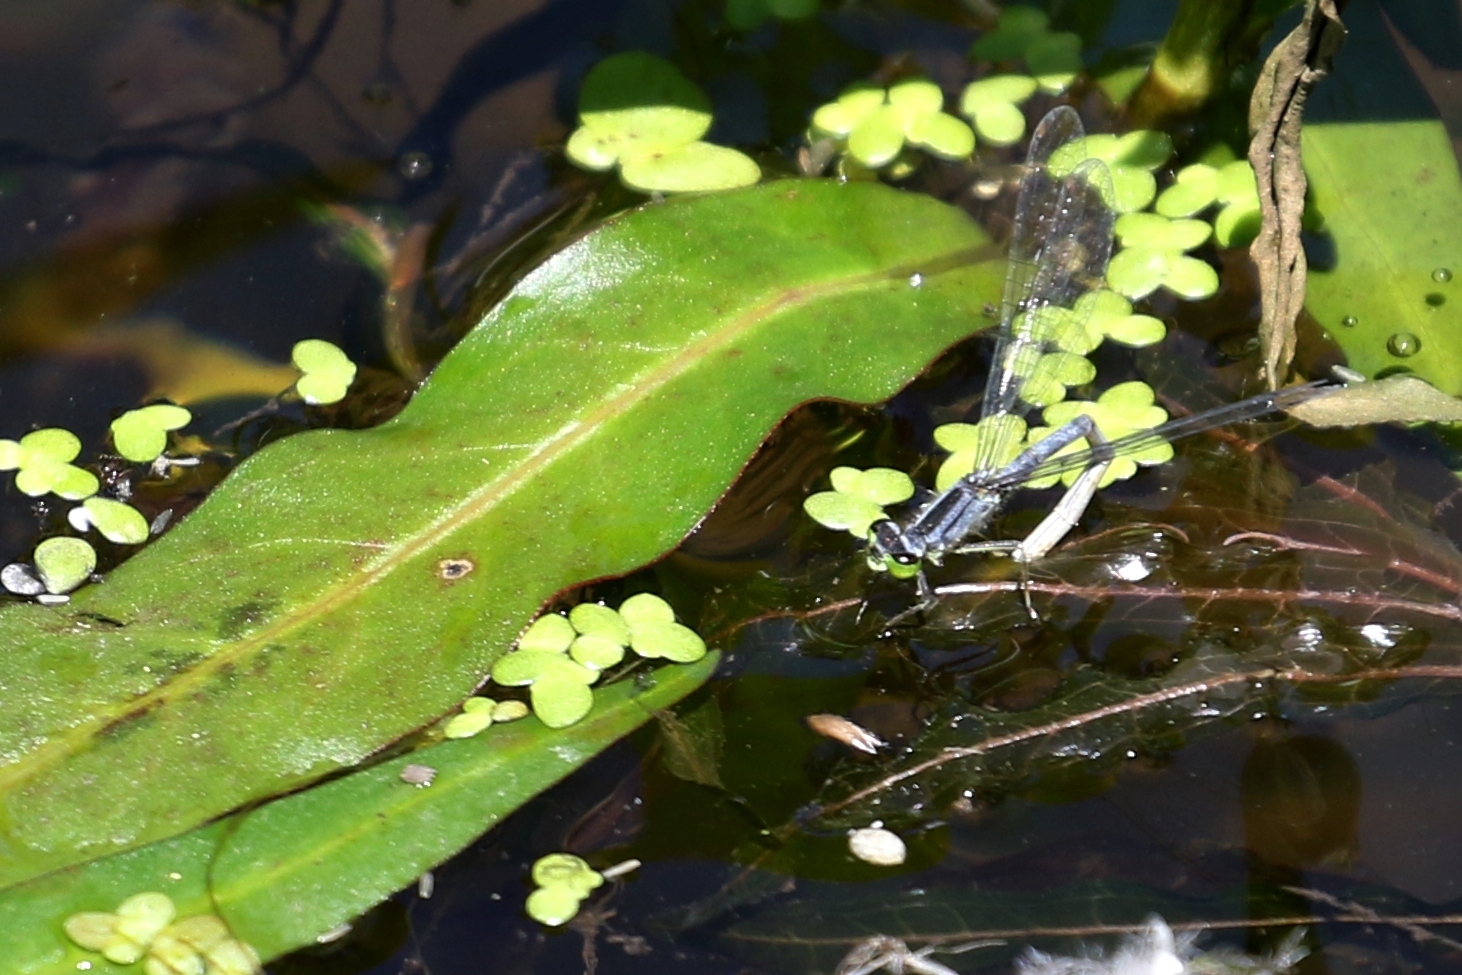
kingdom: Animalia
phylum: Arthropoda
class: Insecta
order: Odonata
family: Coenagrionidae
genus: Ischnura
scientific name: Ischnura verticalis
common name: Eastern forktail
